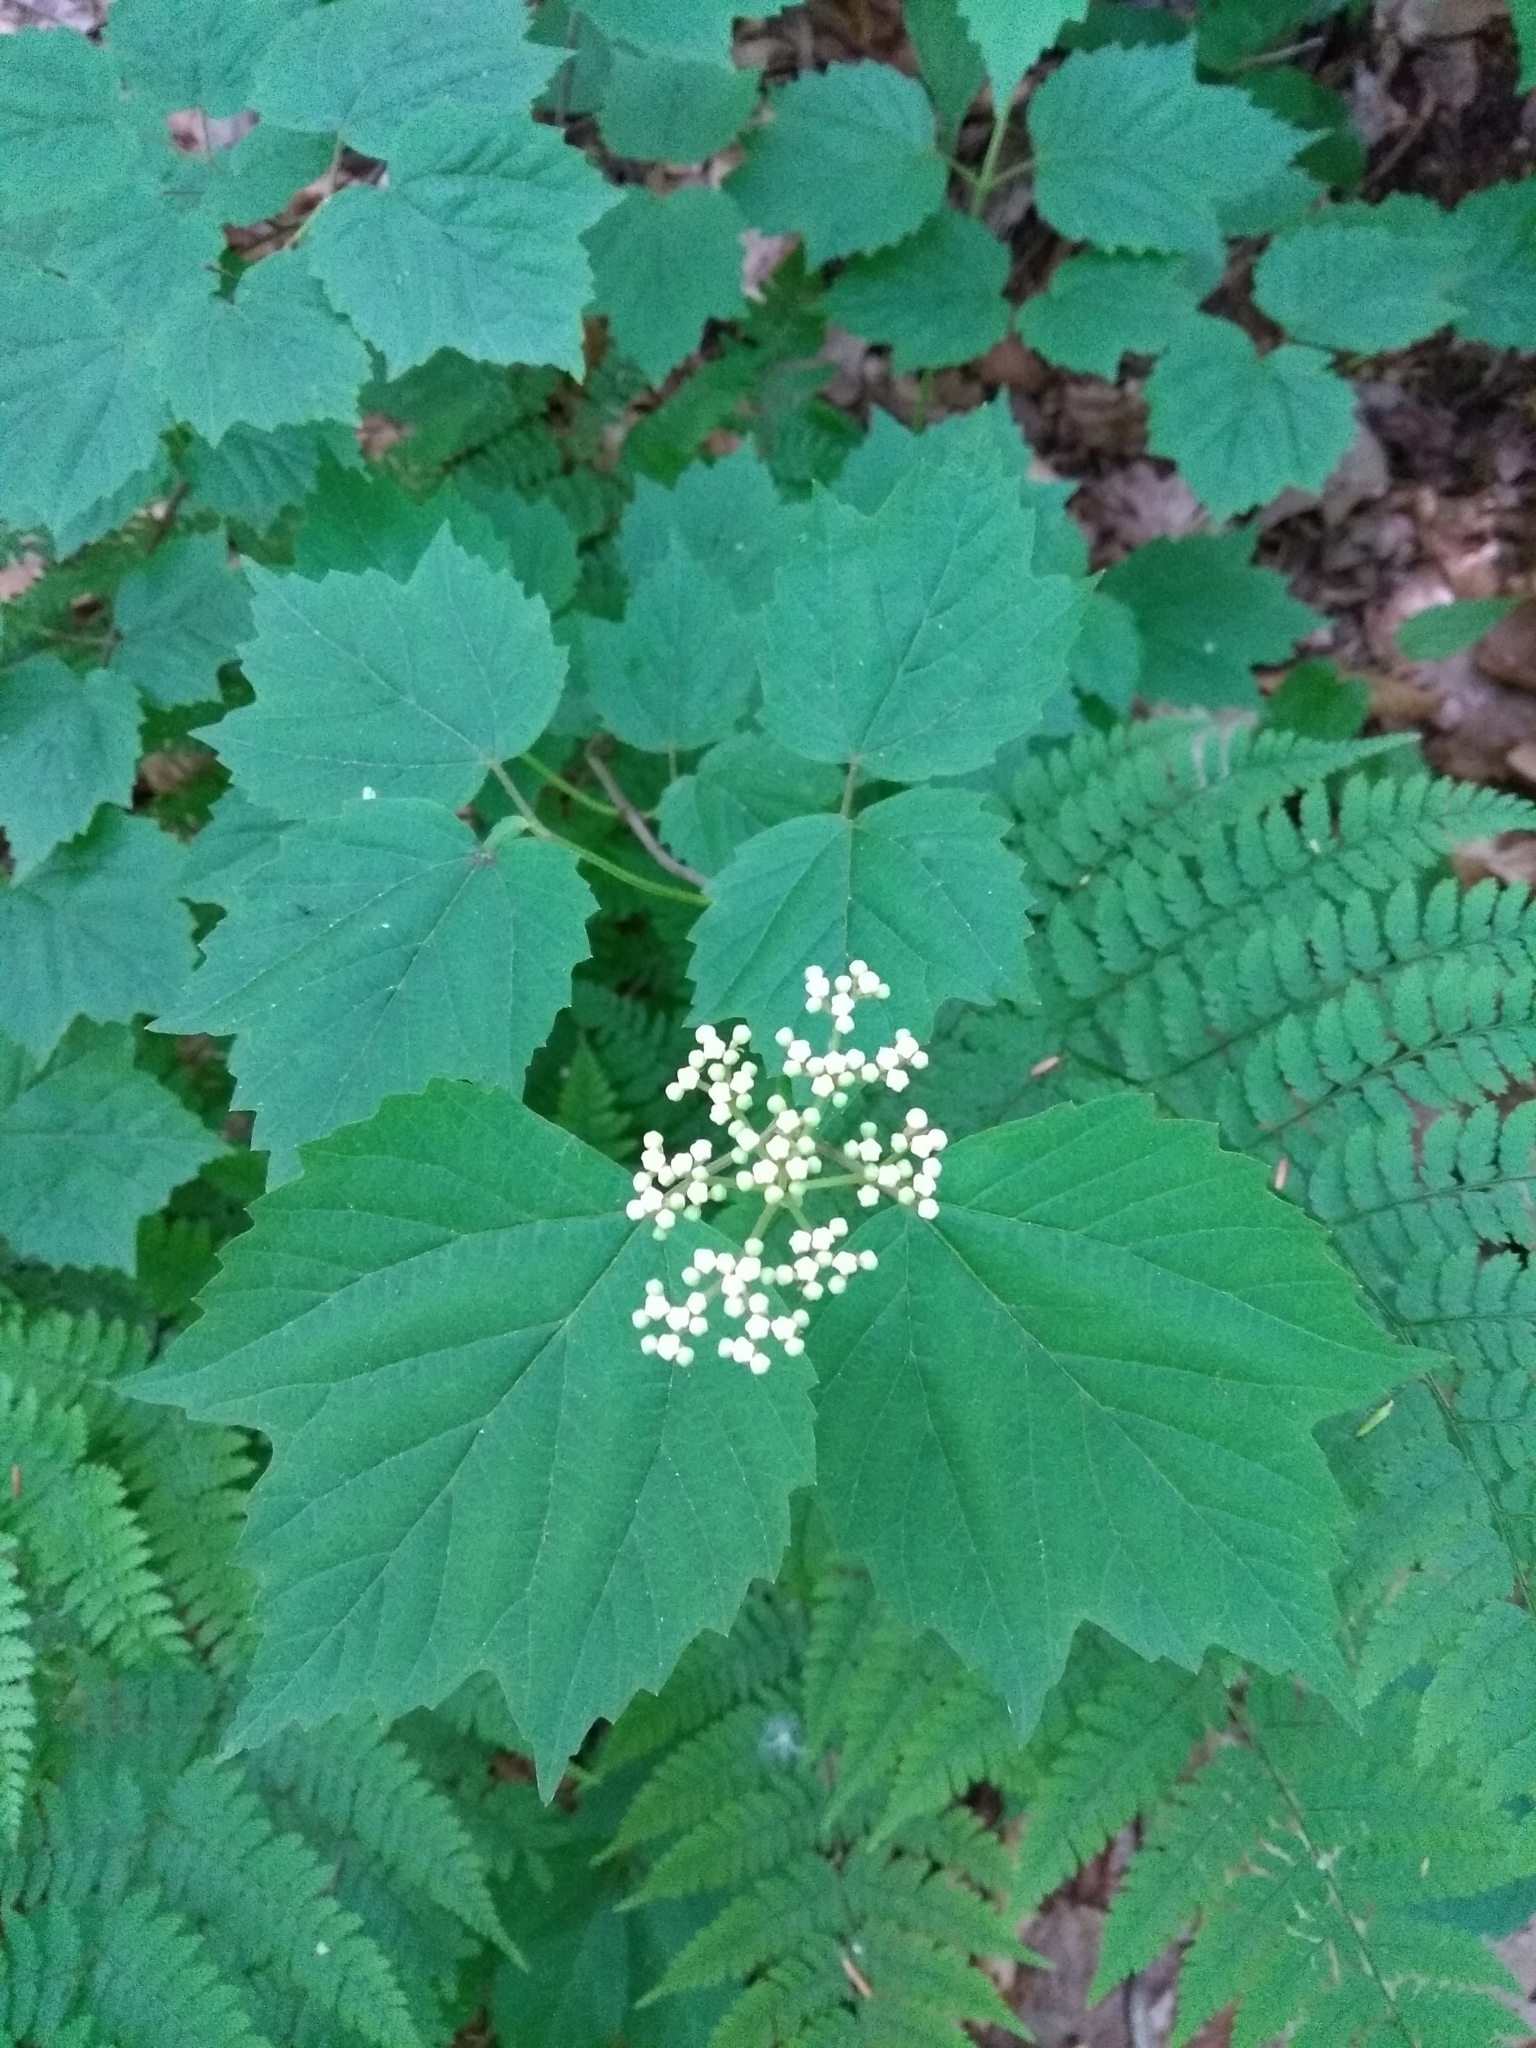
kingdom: Plantae
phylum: Tracheophyta
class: Magnoliopsida
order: Dipsacales
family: Viburnaceae
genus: Viburnum
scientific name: Viburnum acerifolium
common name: Dockmackie
